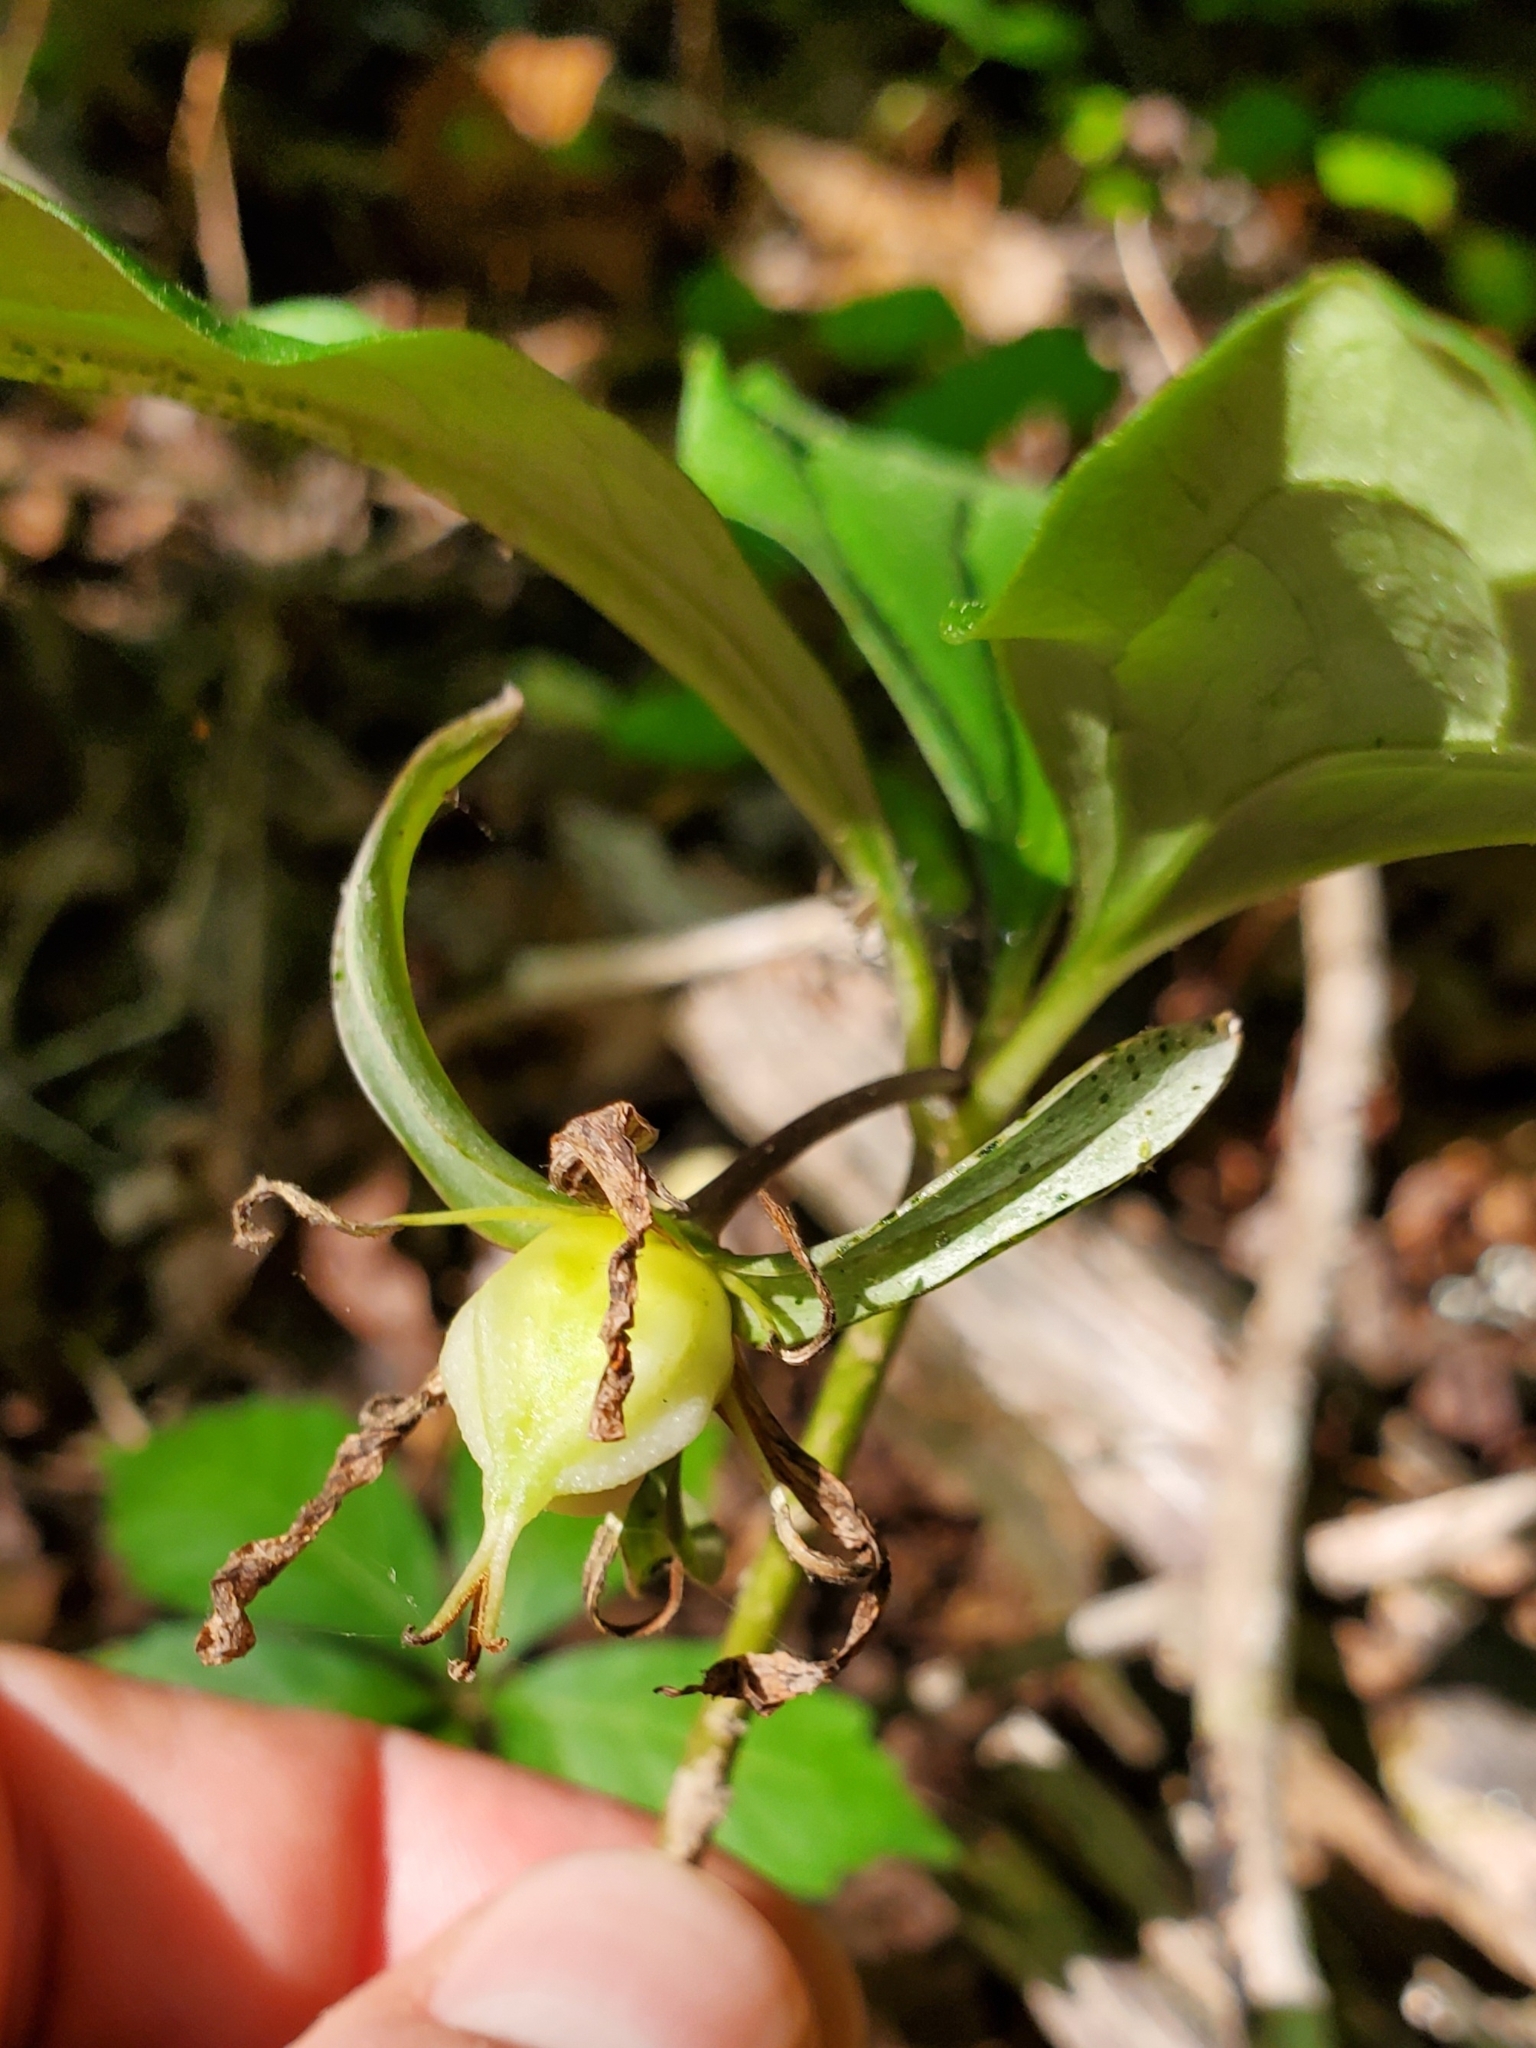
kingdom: Plantae
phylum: Tracheophyta
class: Liliopsida
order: Liliales
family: Melanthiaceae
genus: Trillium
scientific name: Trillium catesbaei
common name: Bashful trillium
